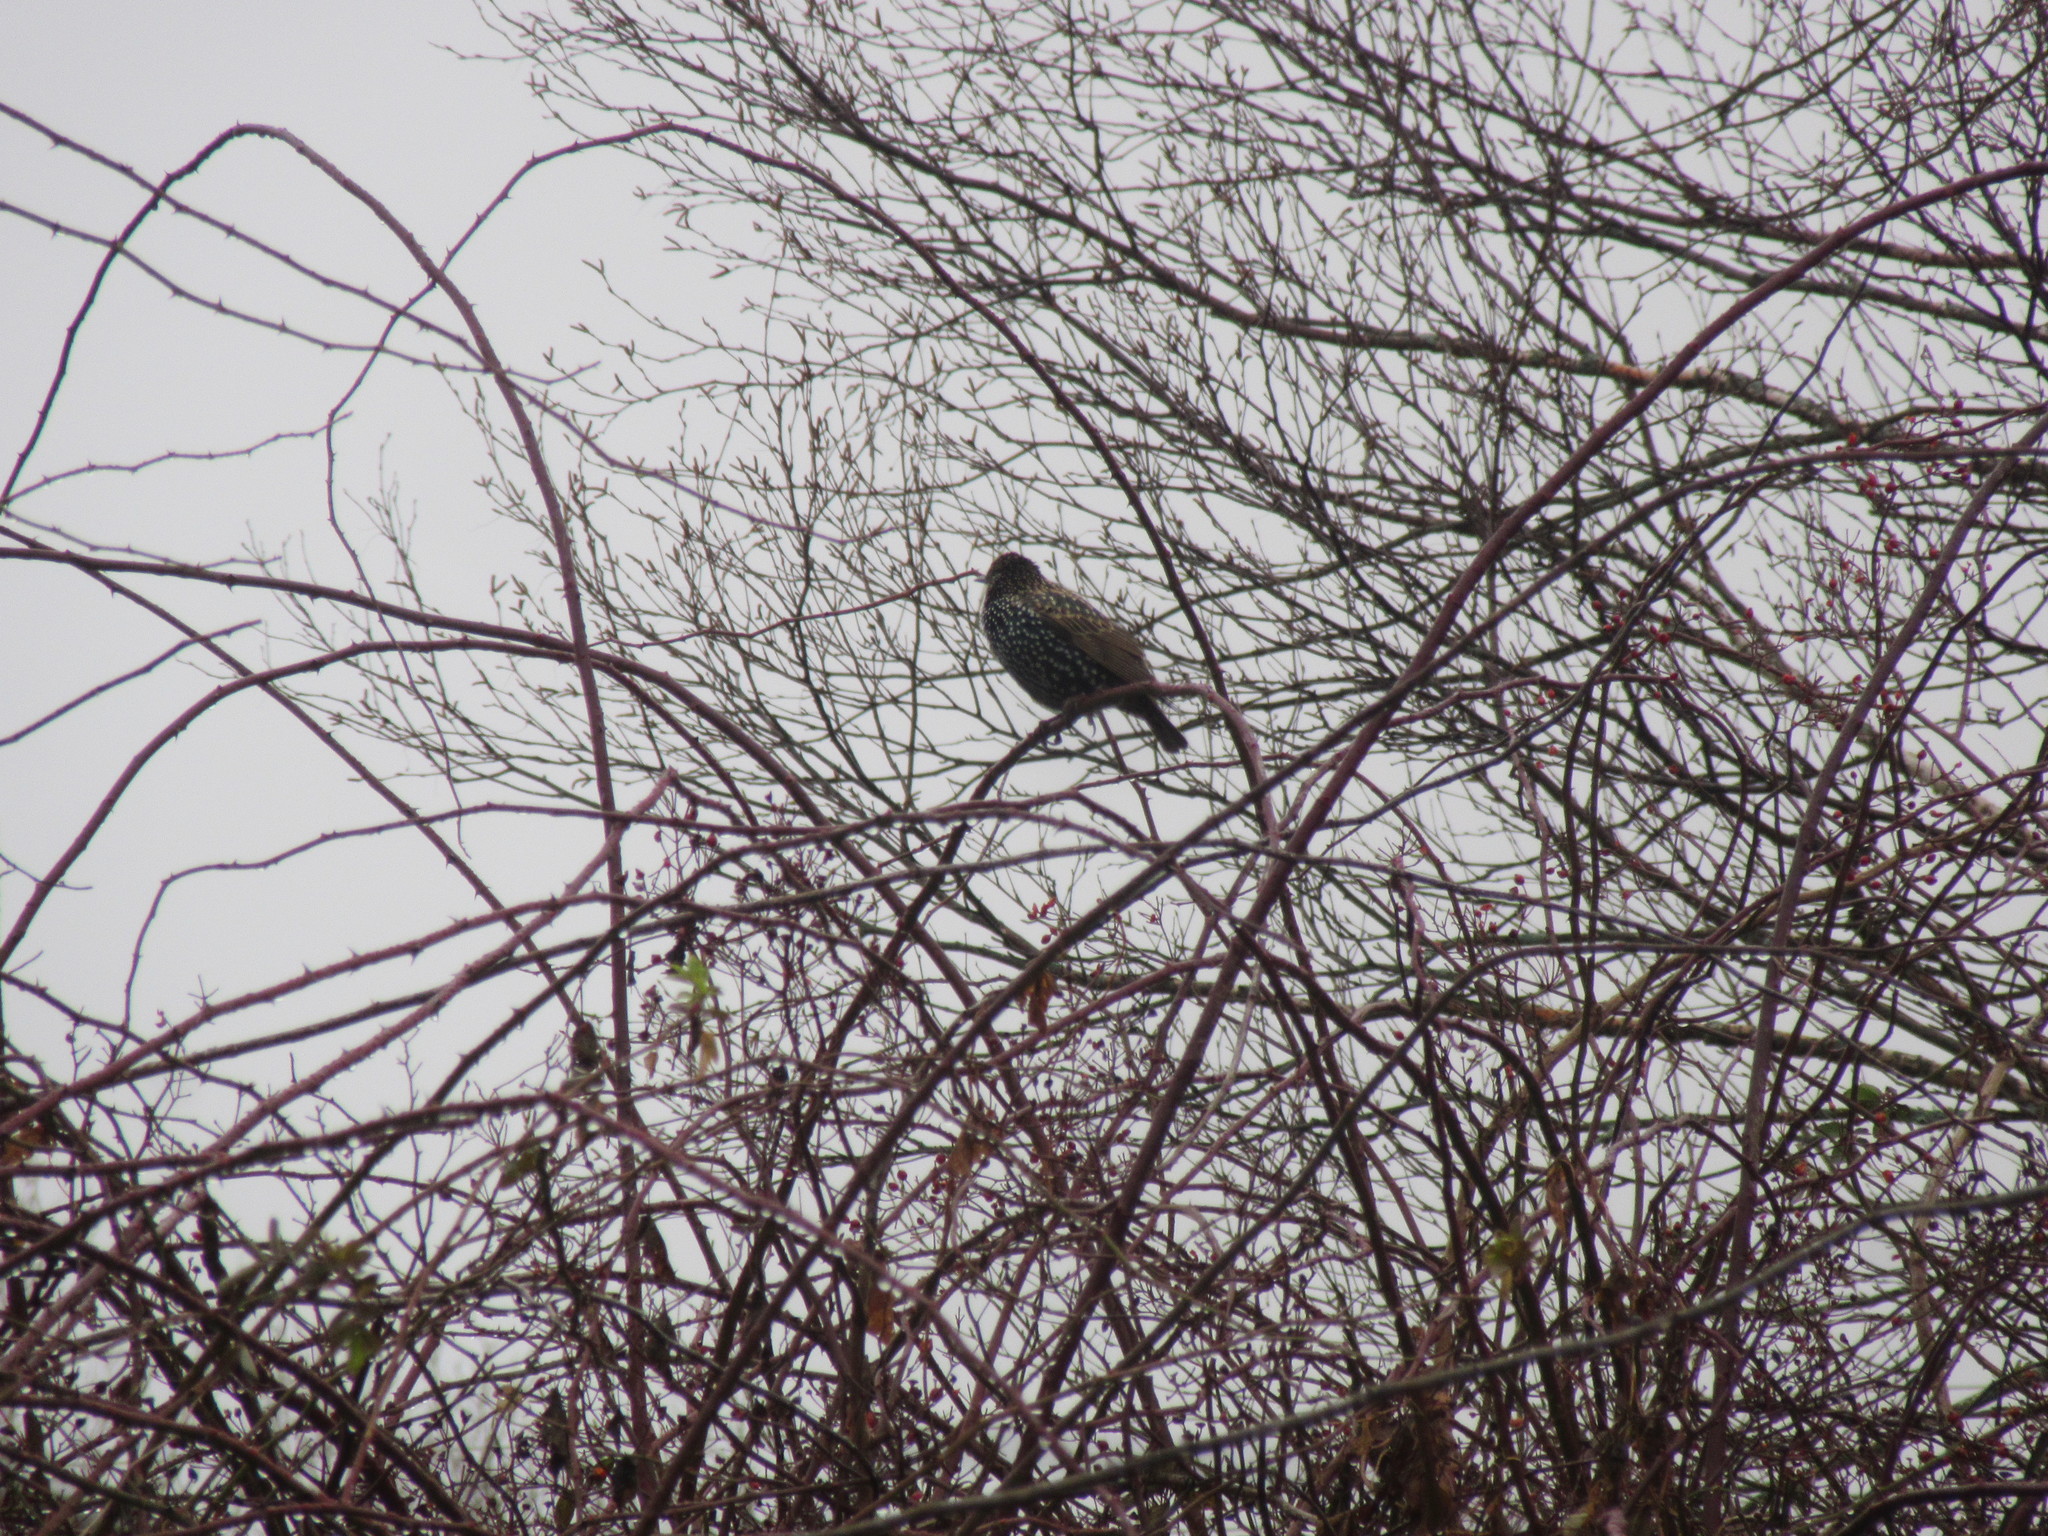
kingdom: Animalia
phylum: Chordata
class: Aves
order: Passeriformes
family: Sturnidae
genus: Sturnus
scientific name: Sturnus vulgaris
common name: Common starling
